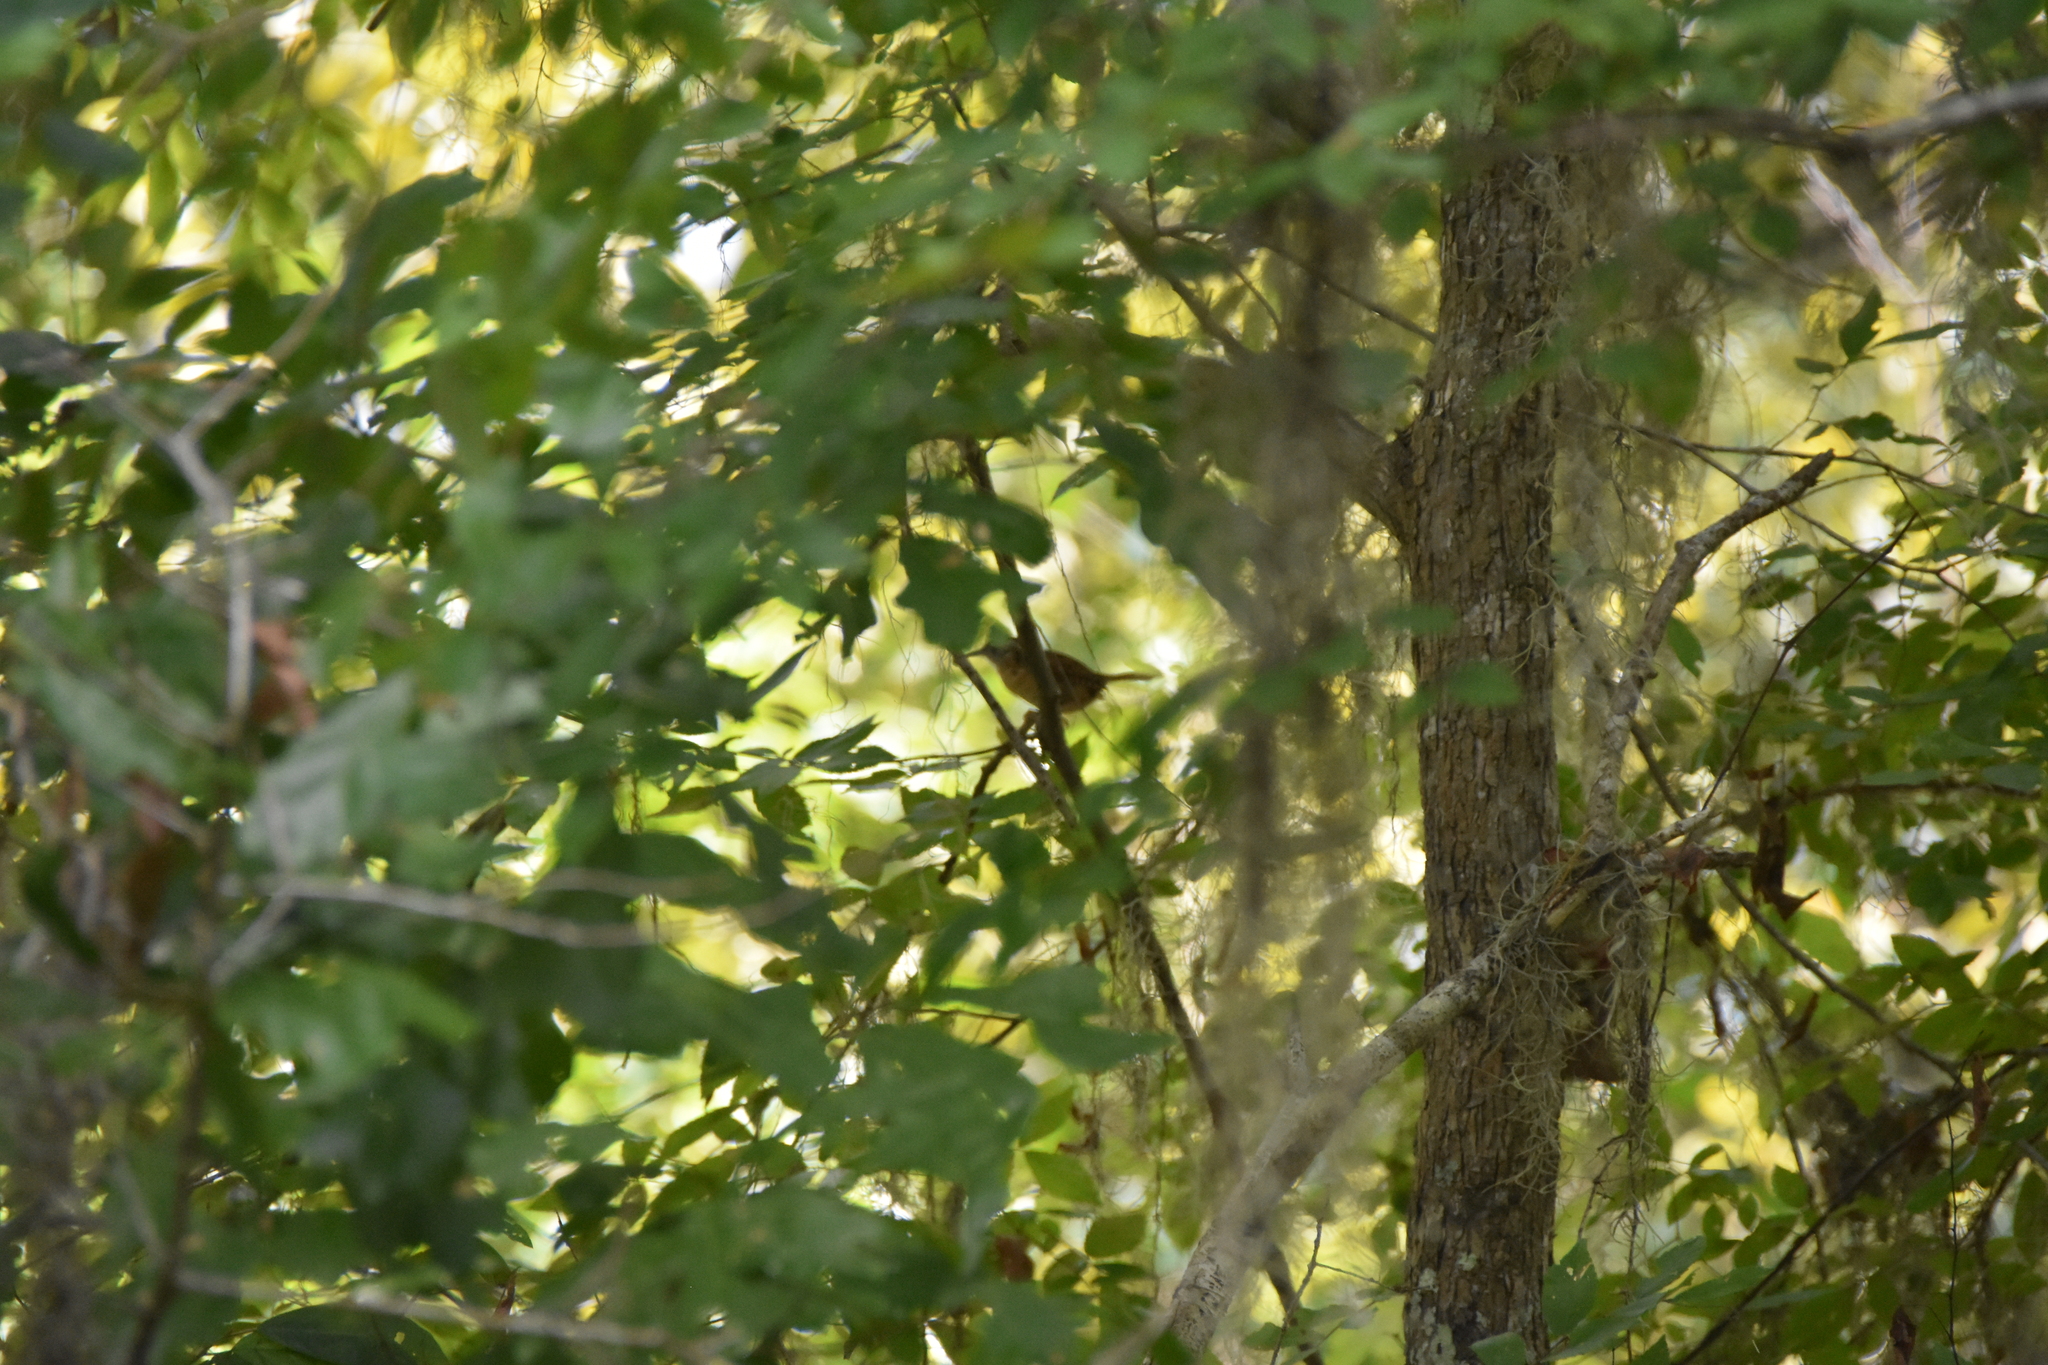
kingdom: Animalia
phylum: Chordata
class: Aves
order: Passeriformes
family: Troglodytidae
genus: Thryothorus
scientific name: Thryothorus ludovicianus
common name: Carolina wren
